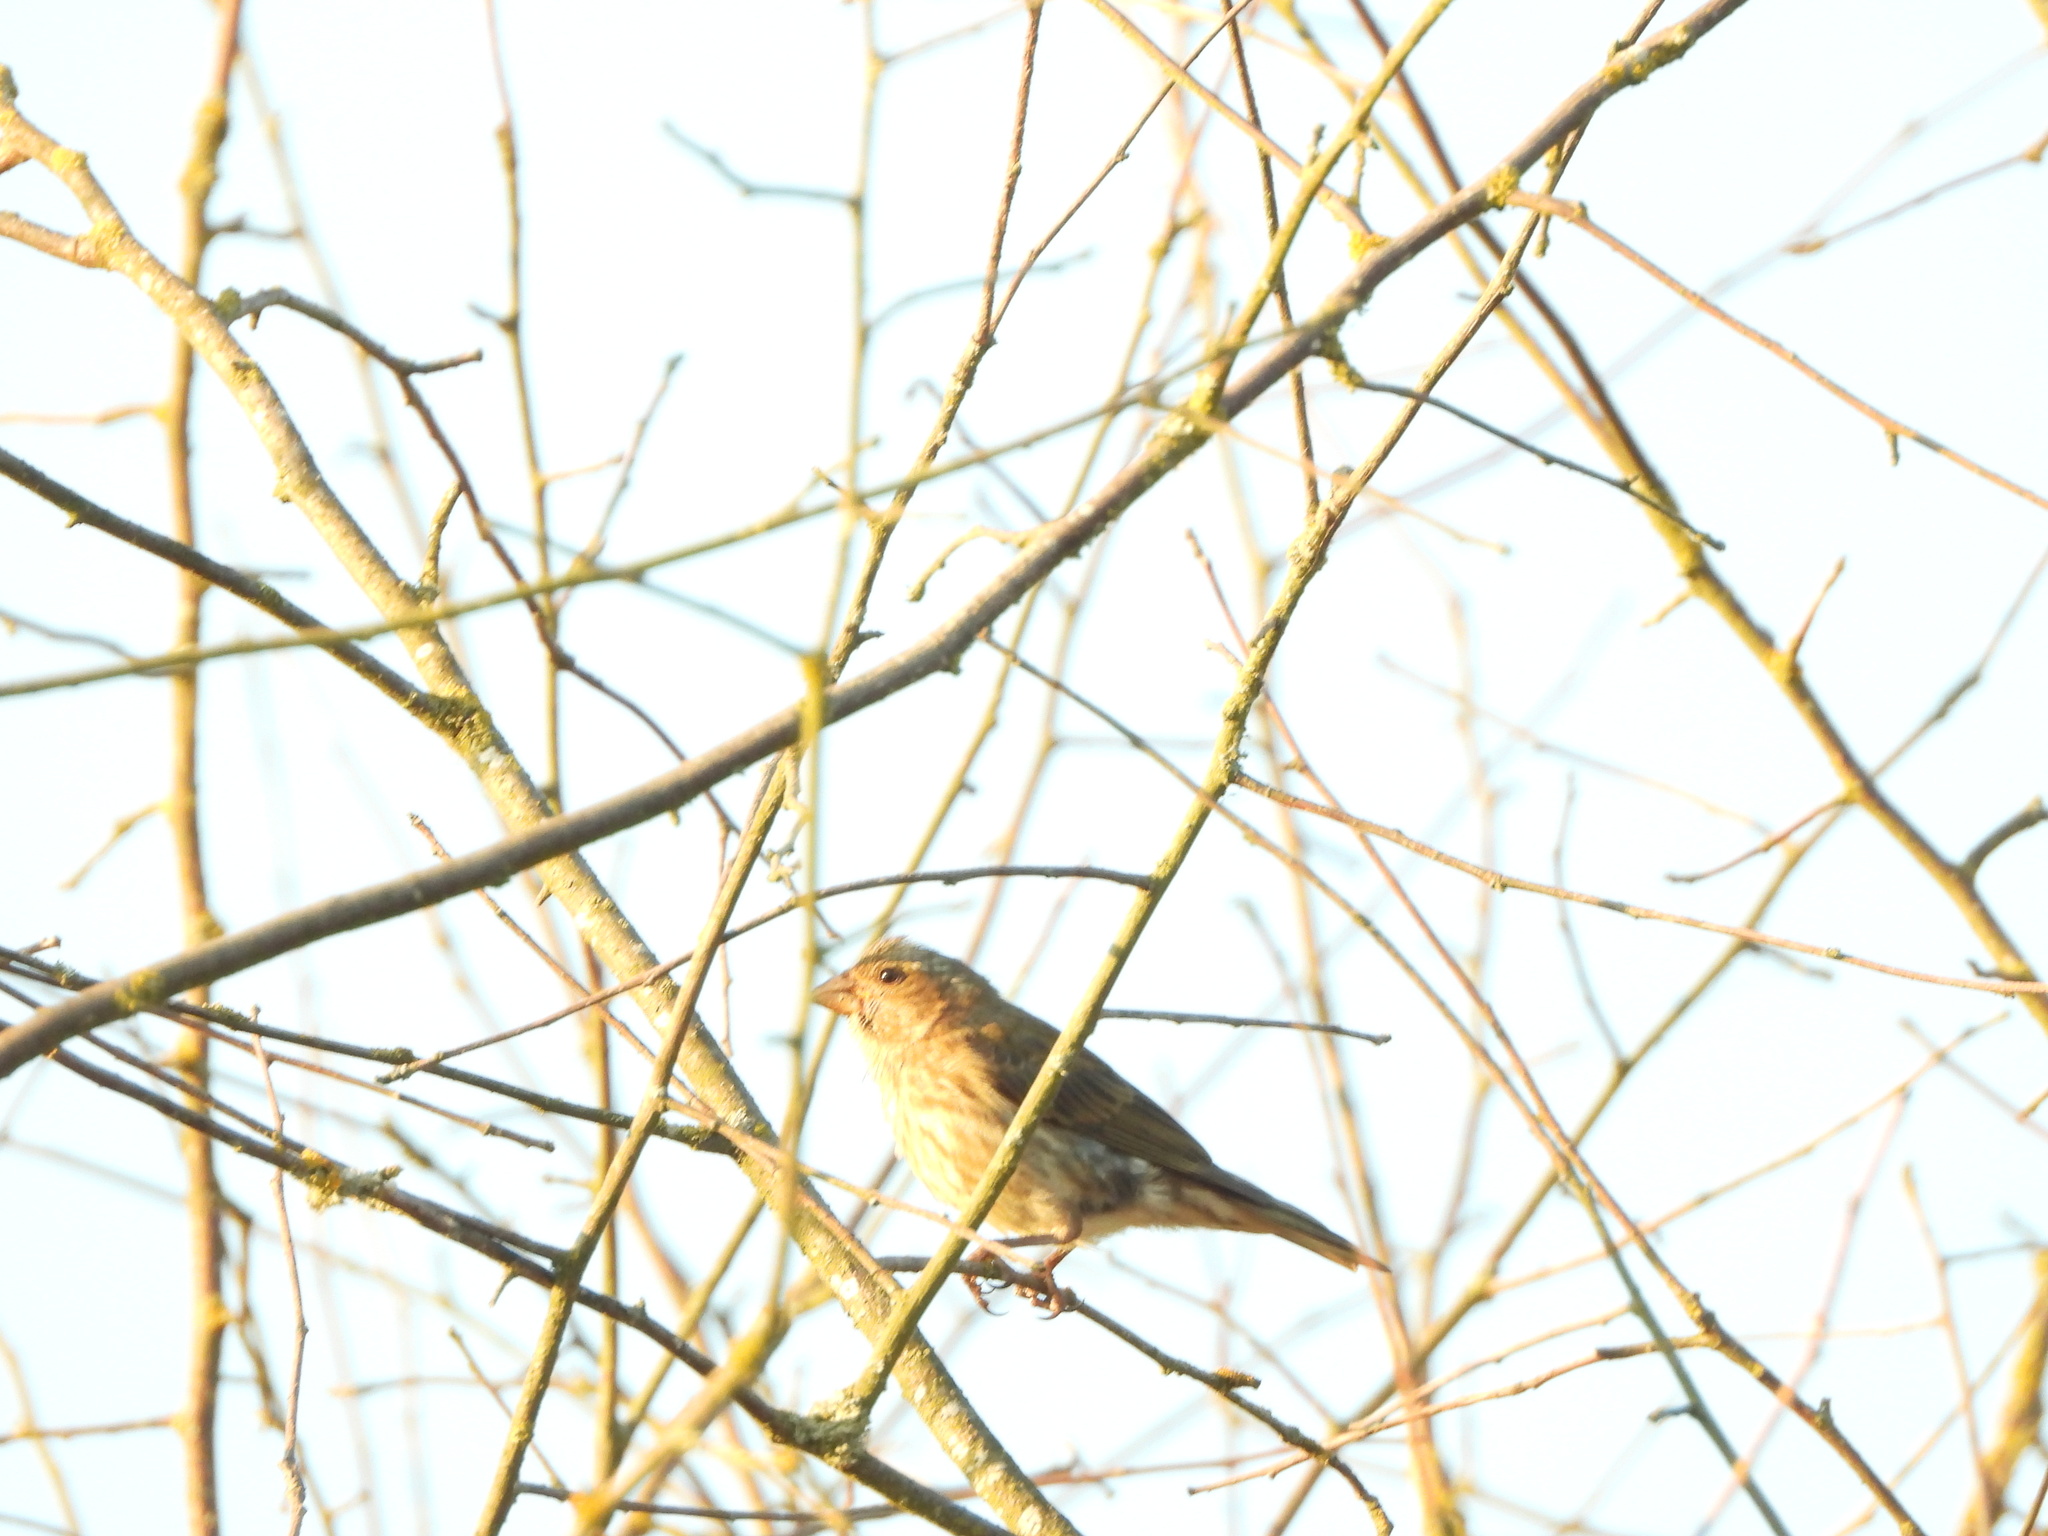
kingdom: Animalia
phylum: Chordata
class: Aves
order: Passeriformes
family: Fringillidae
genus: Haemorhous
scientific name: Haemorhous purpureus
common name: Purple finch
